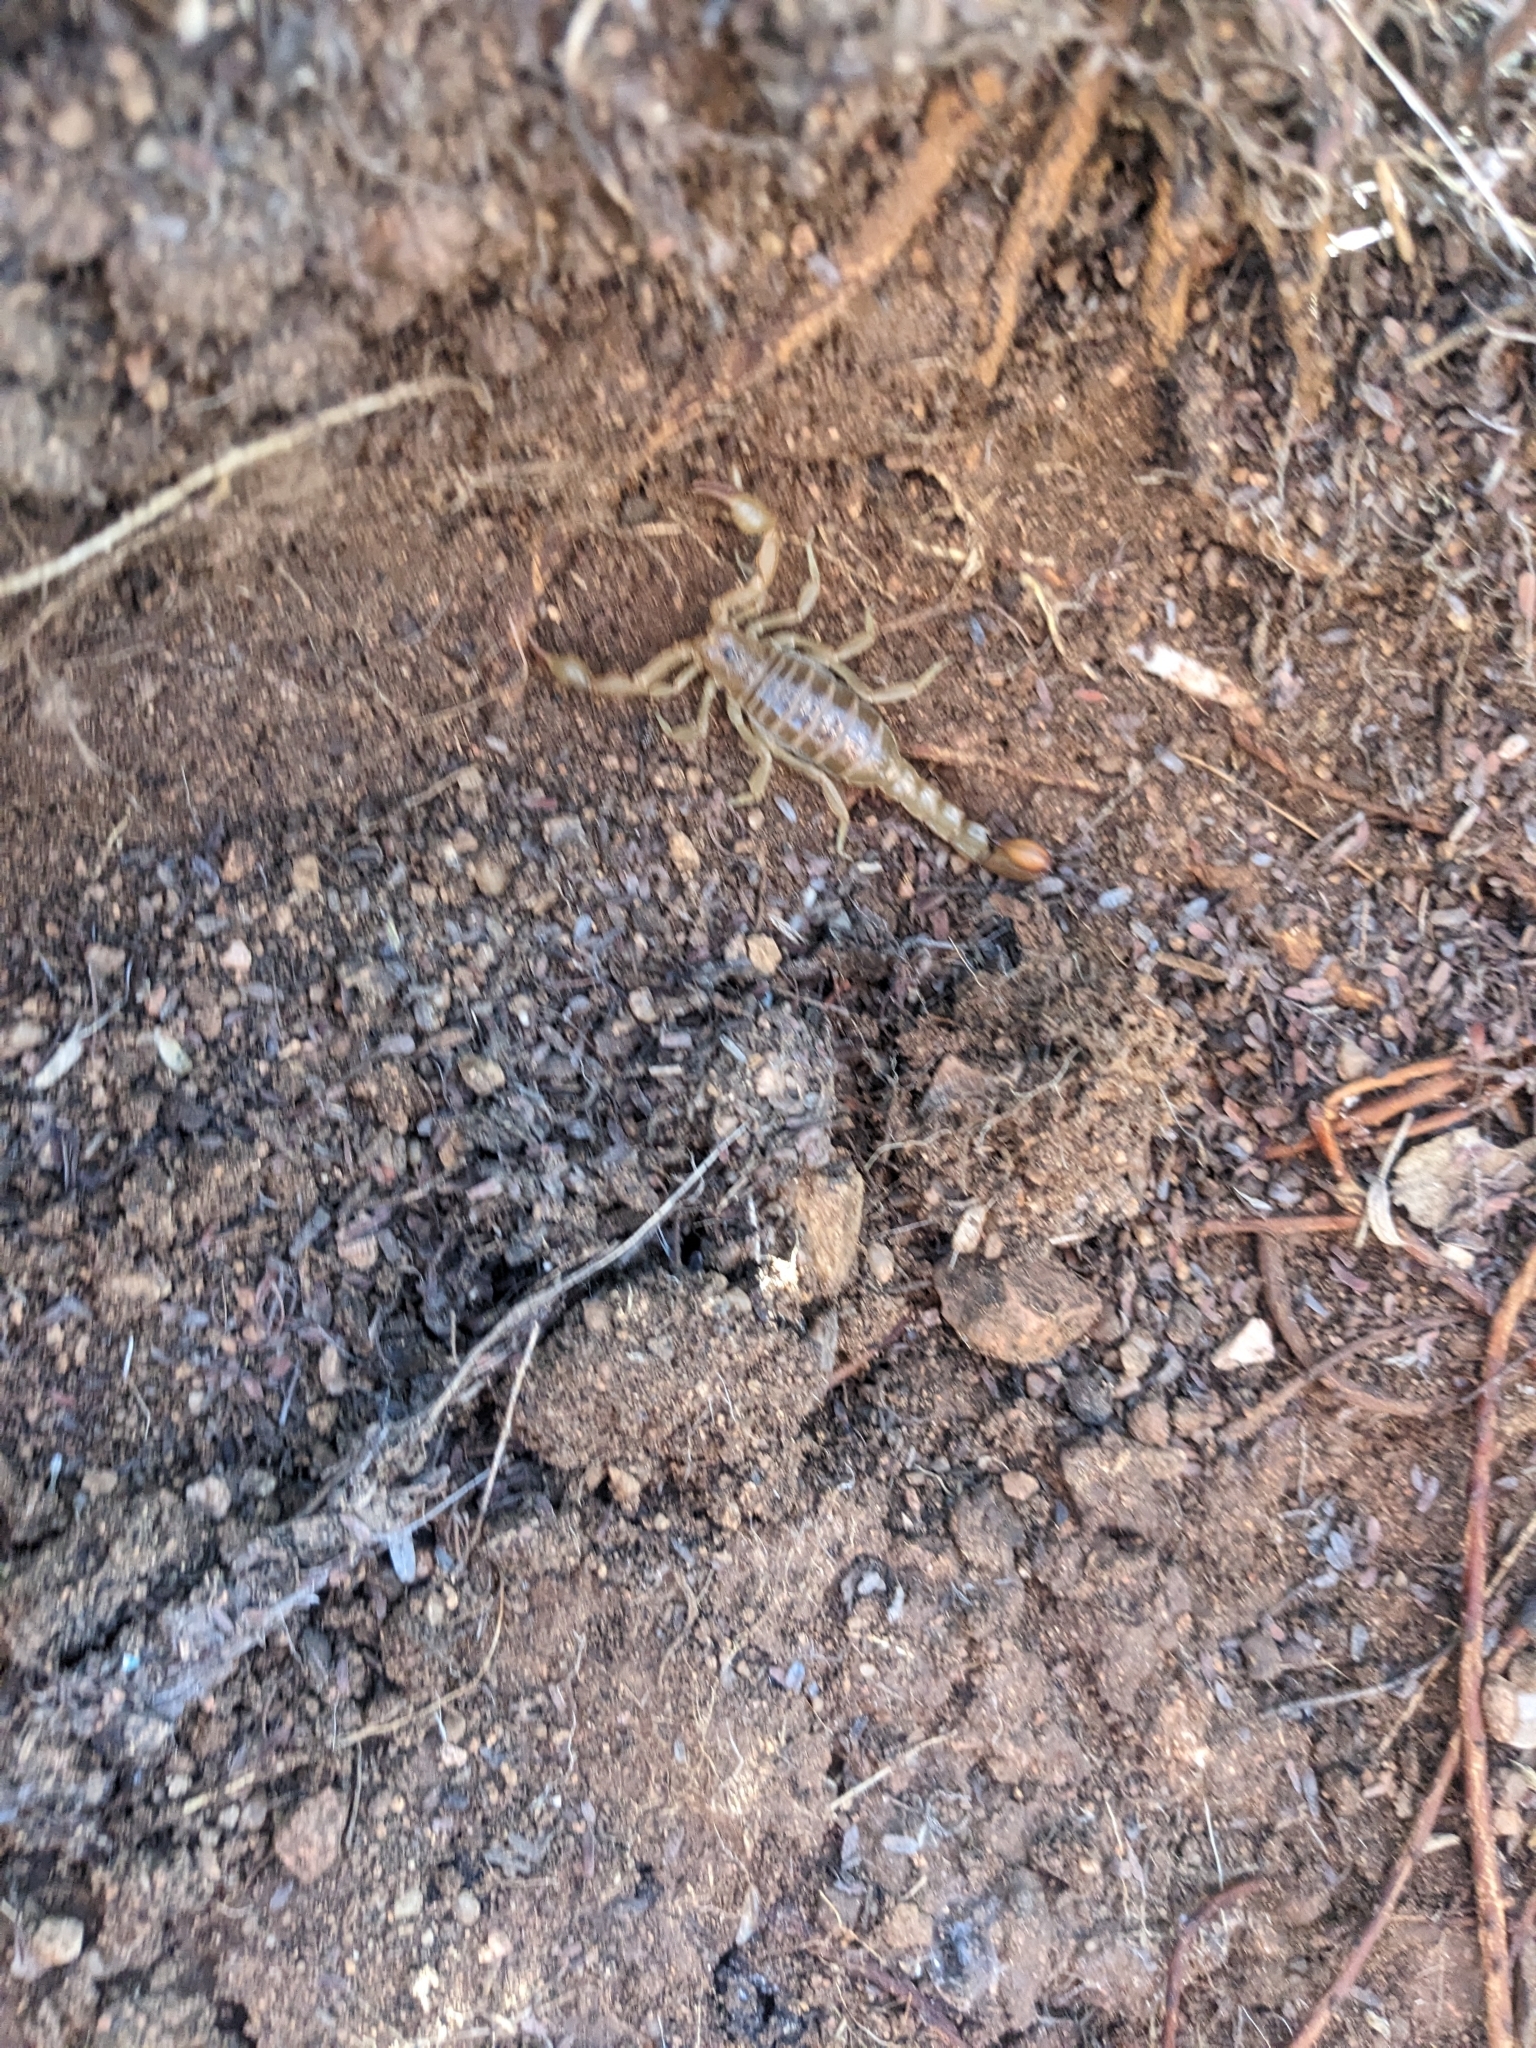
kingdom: Animalia
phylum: Arthropoda
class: Arachnida
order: Scorpiones
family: Vaejovidae
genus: Paravaejovis
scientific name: Paravaejovis spinigerus
